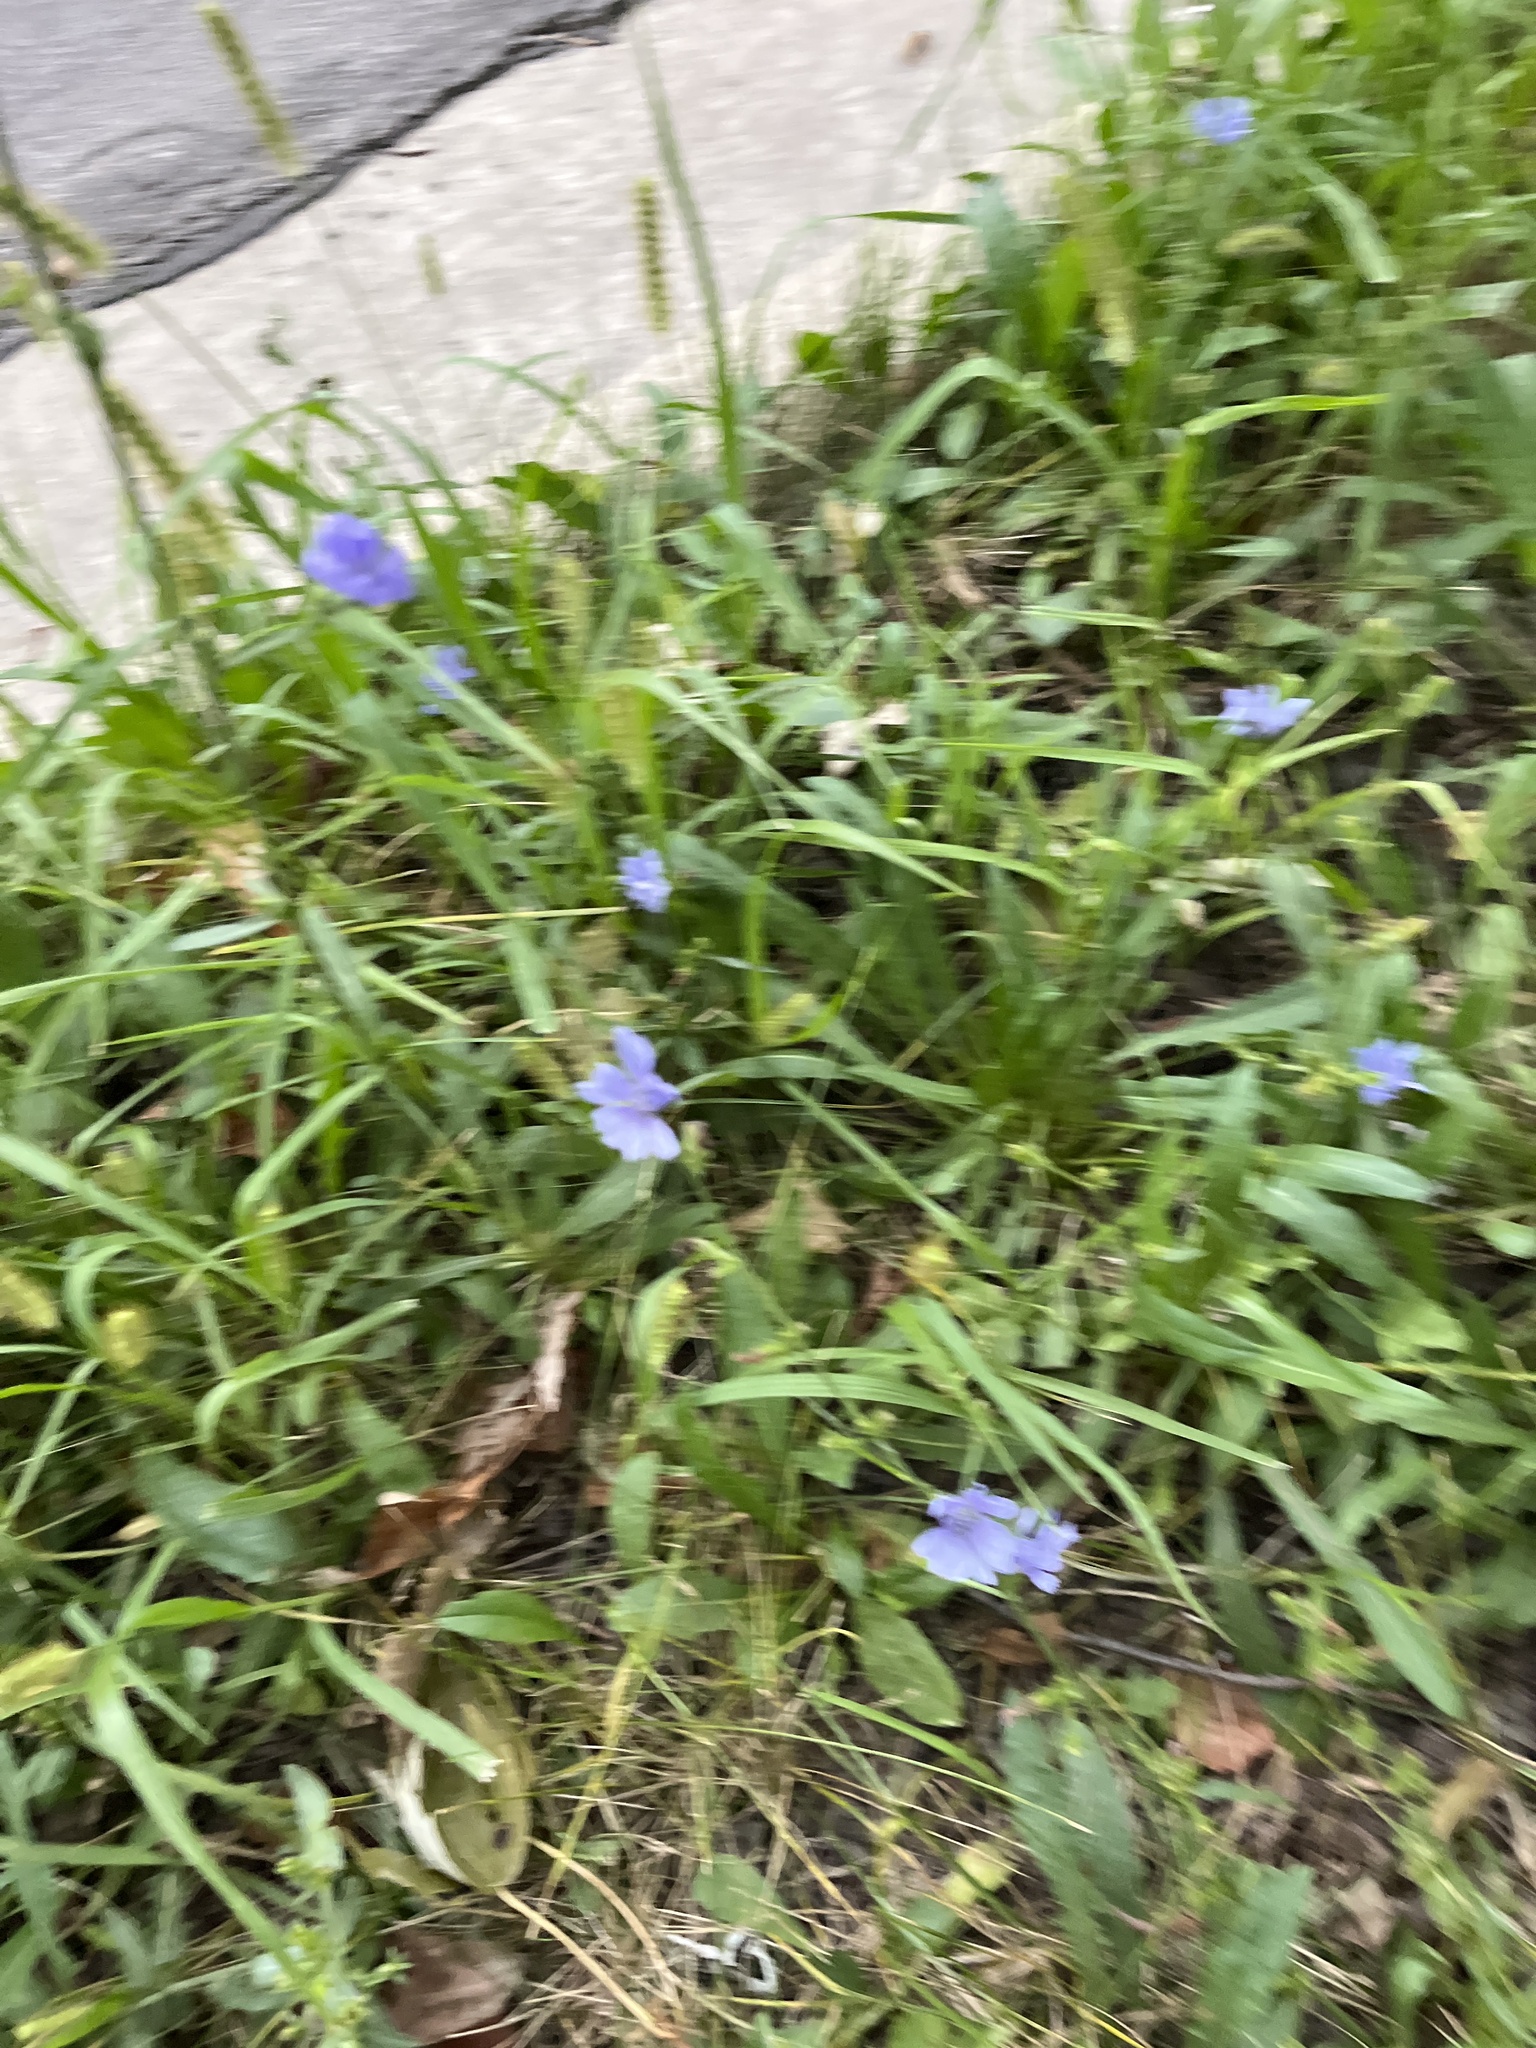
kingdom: Plantae
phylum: Tracheophyta
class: Magnoliopsida
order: Asterales
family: Asteraceae
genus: Cichorium
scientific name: Cichorium intybus
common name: Chicory
